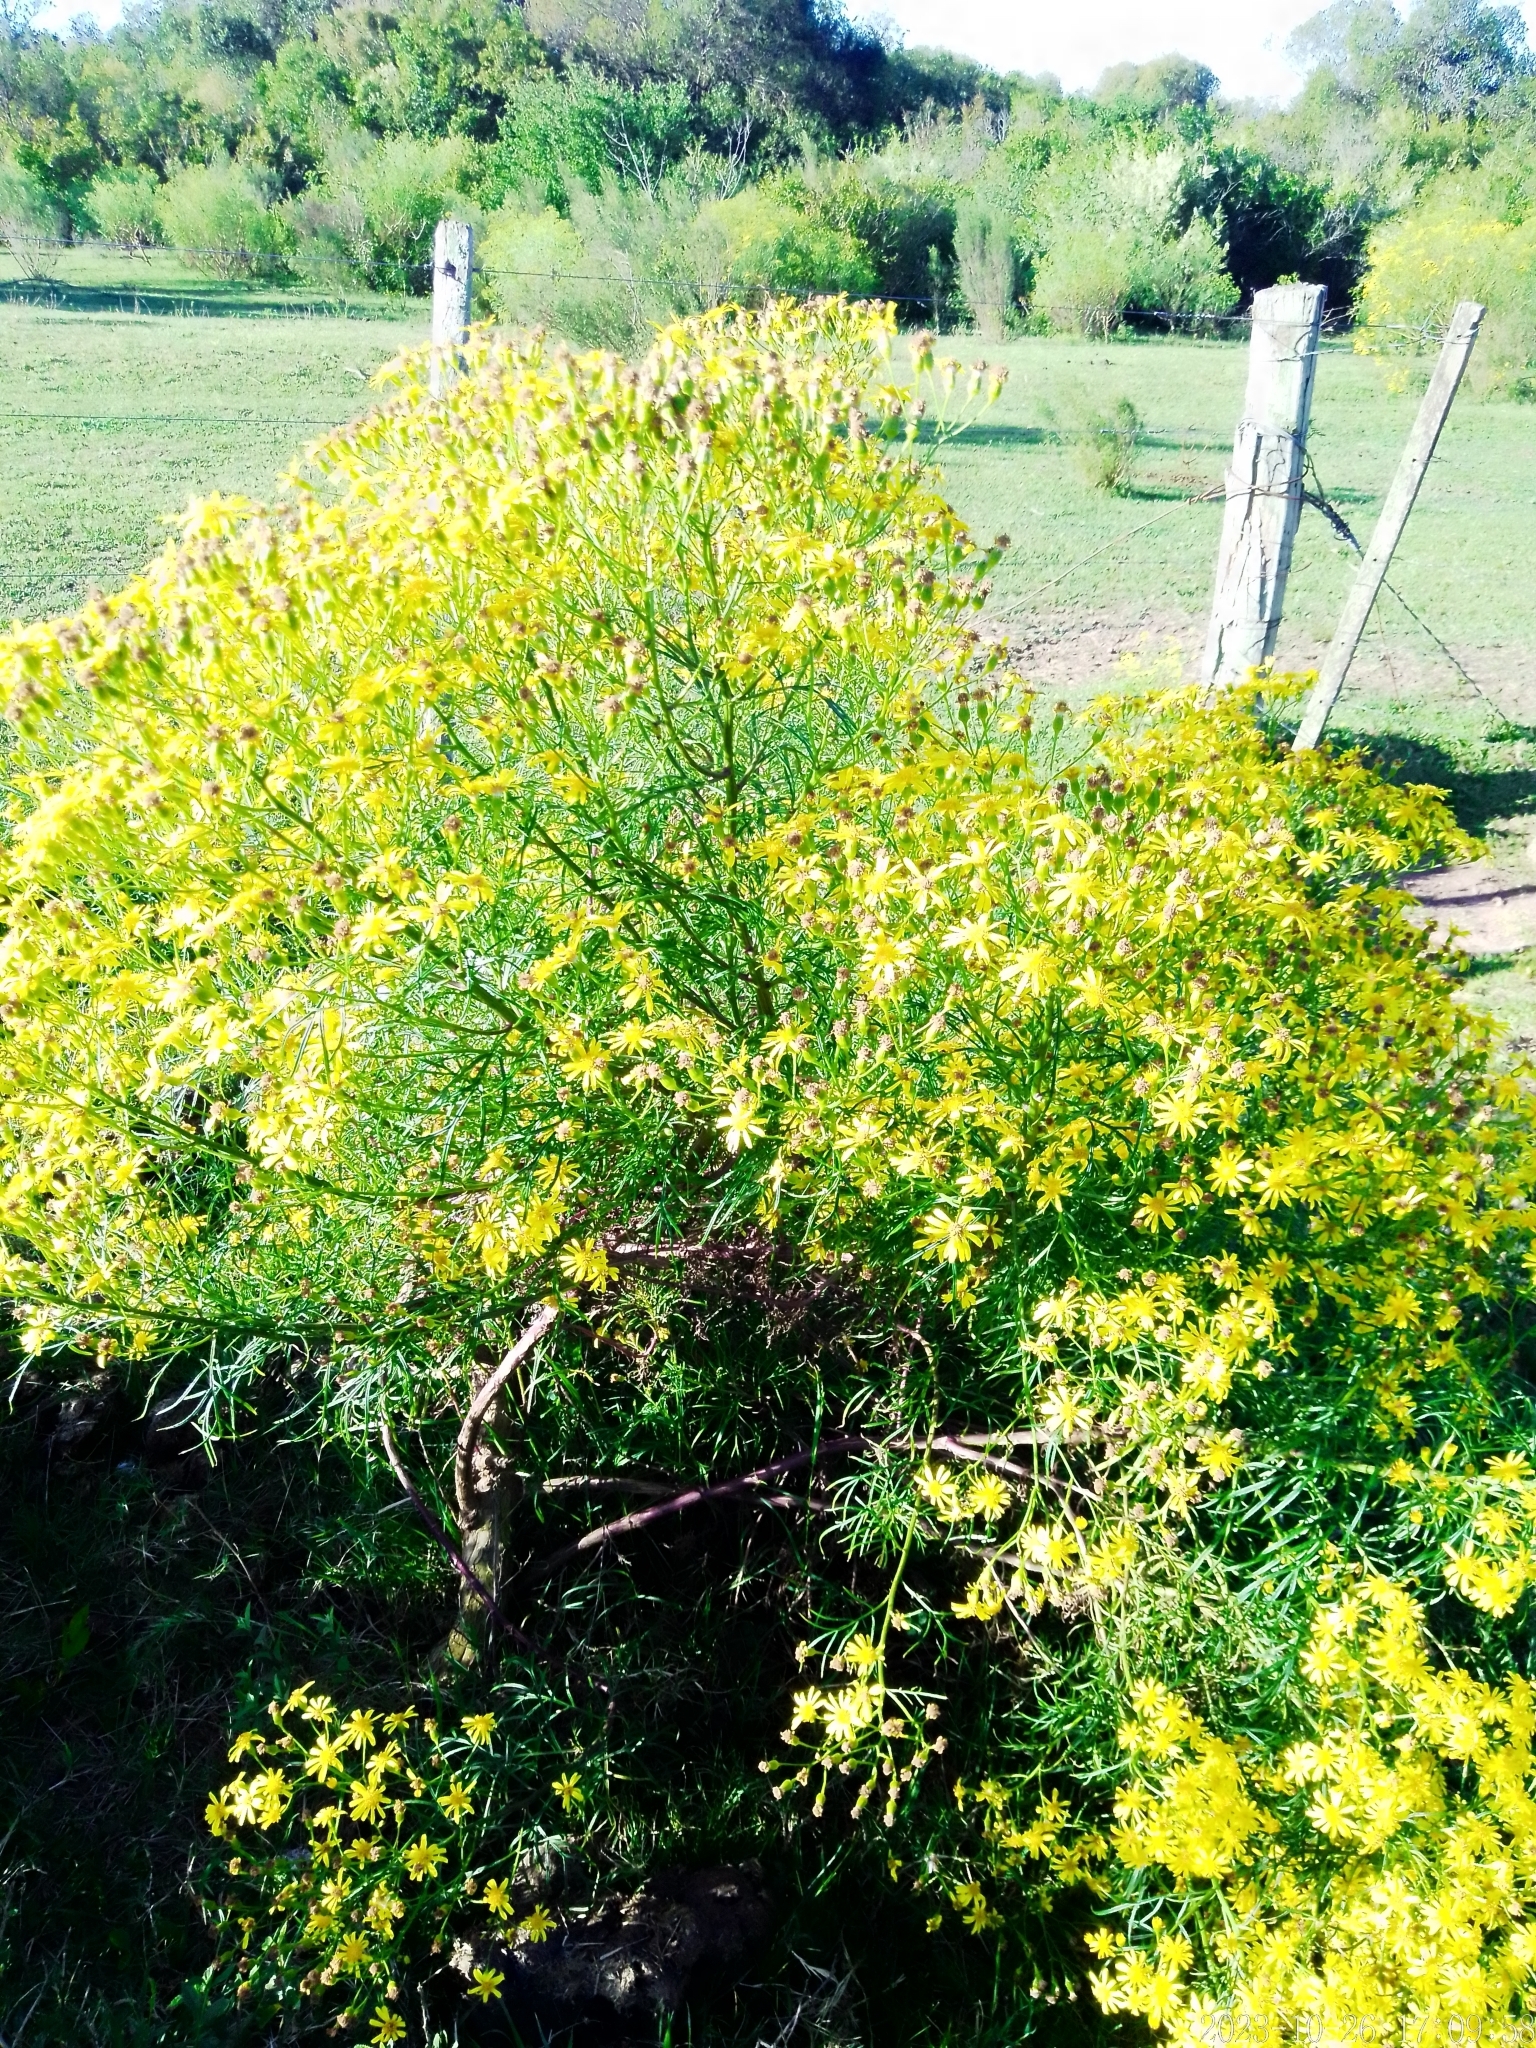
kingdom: Plantae
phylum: Tracheophyta
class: Magnoliopsida
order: Asterales
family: Asteraceae
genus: Senecio
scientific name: Senecio brasiliensis
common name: Hemp-leaf ragwort
